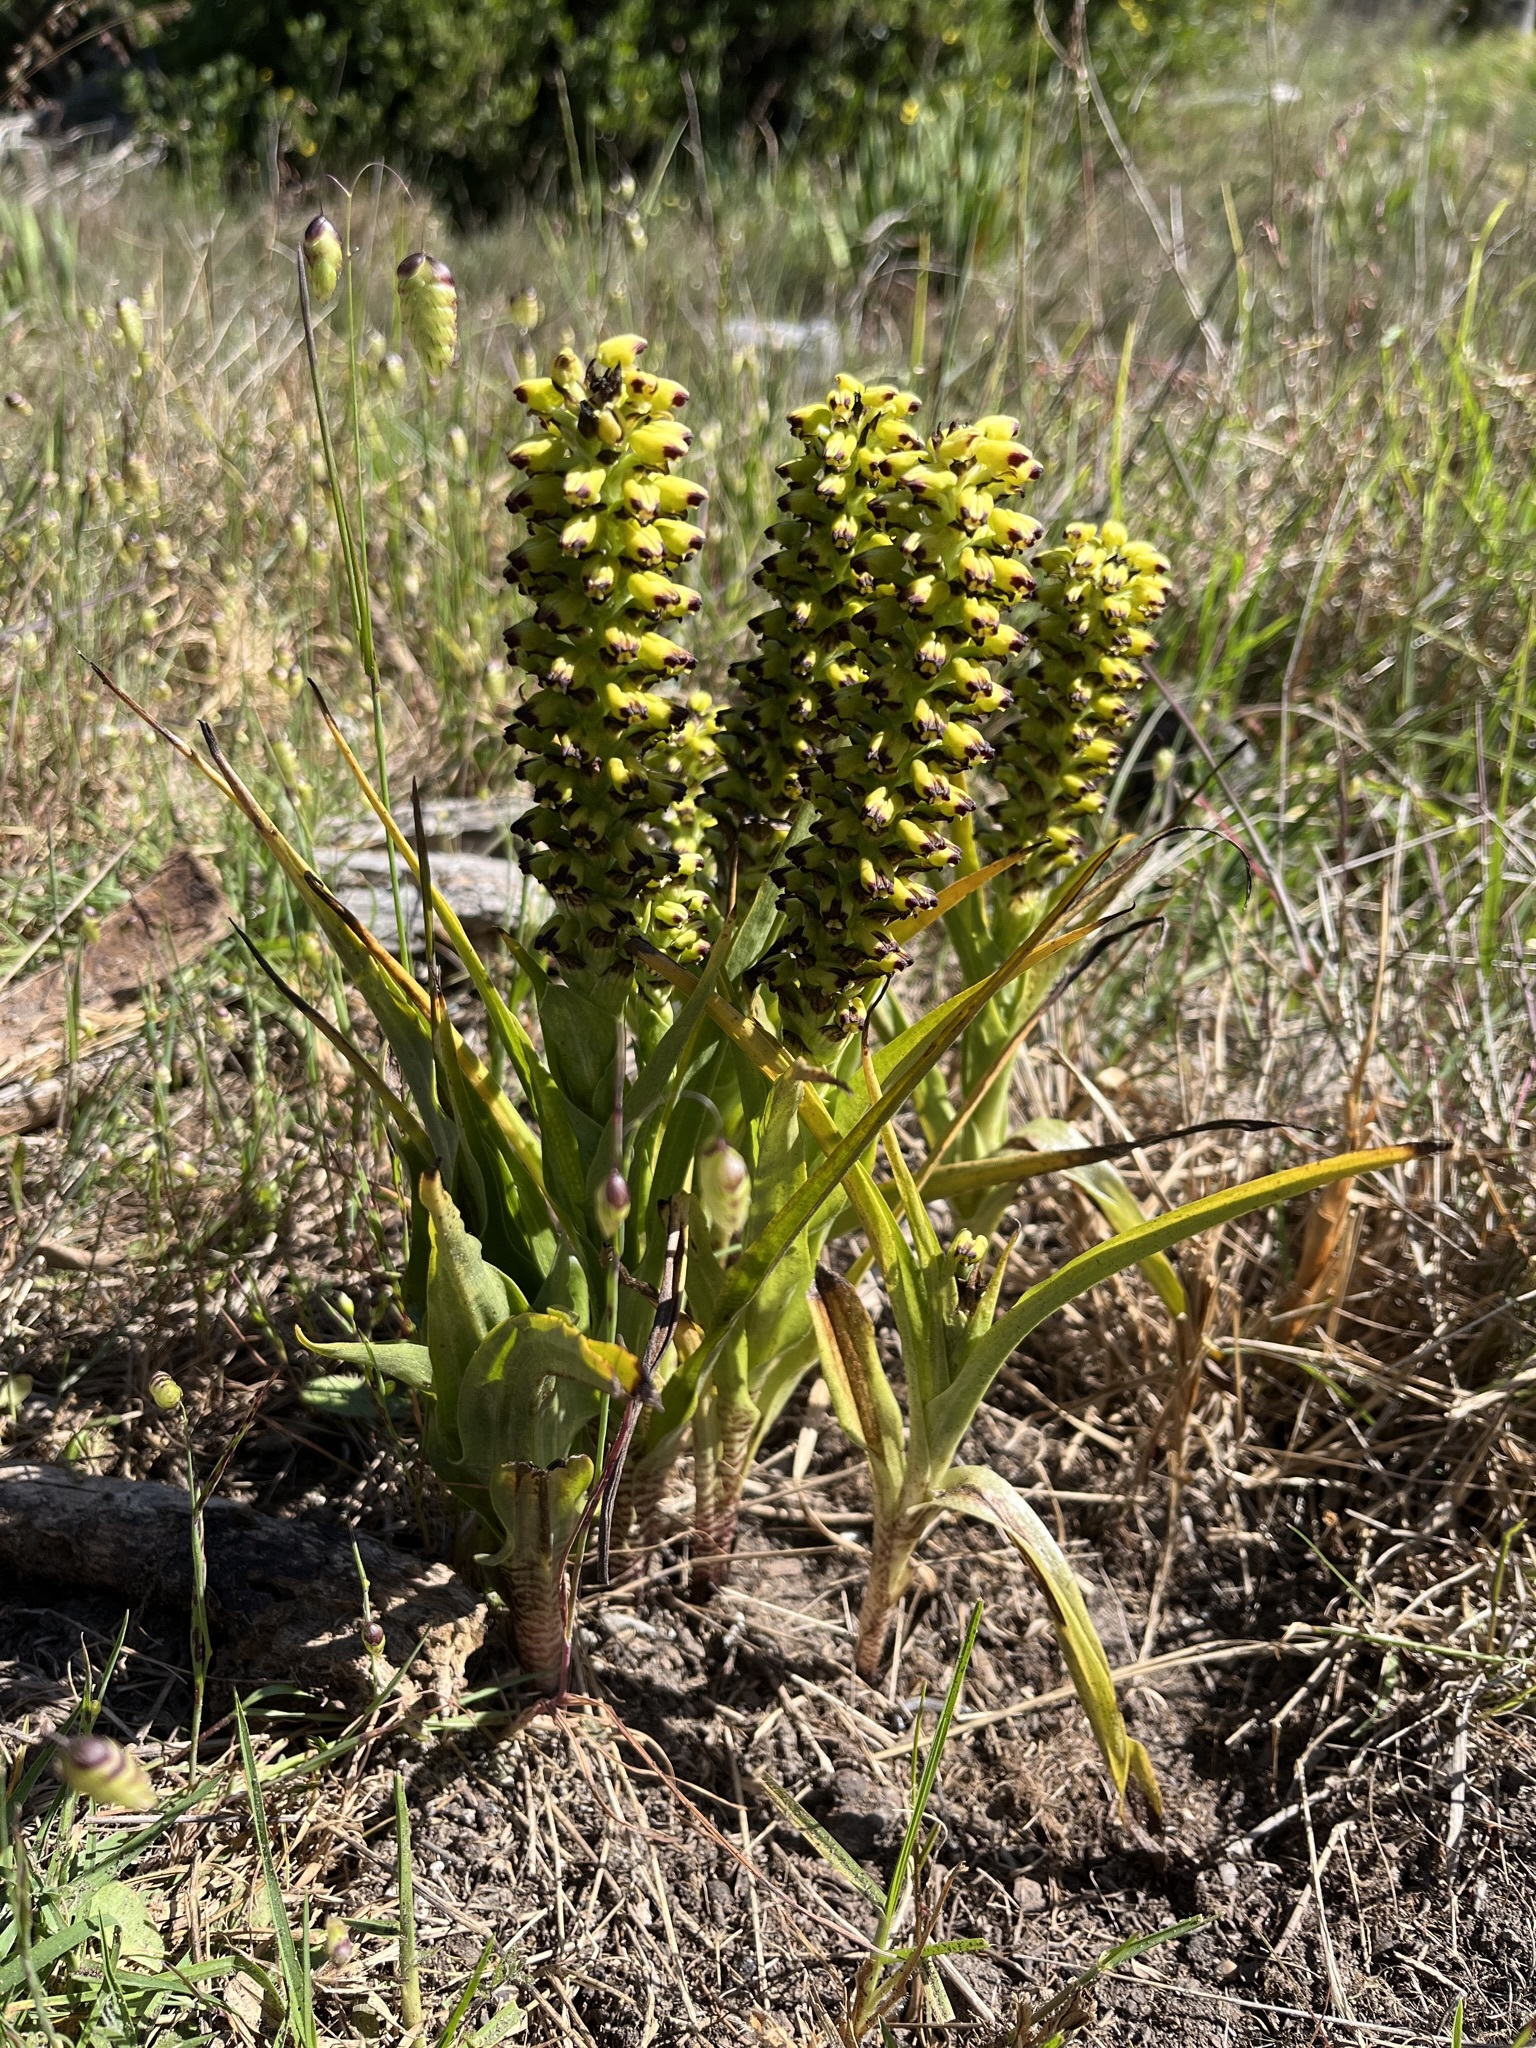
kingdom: Plantae
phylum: Tracheophyta
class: Liliopsida
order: Asparagales
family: Orchidaceae
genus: Corycium
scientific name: Corycium orobanchoides
